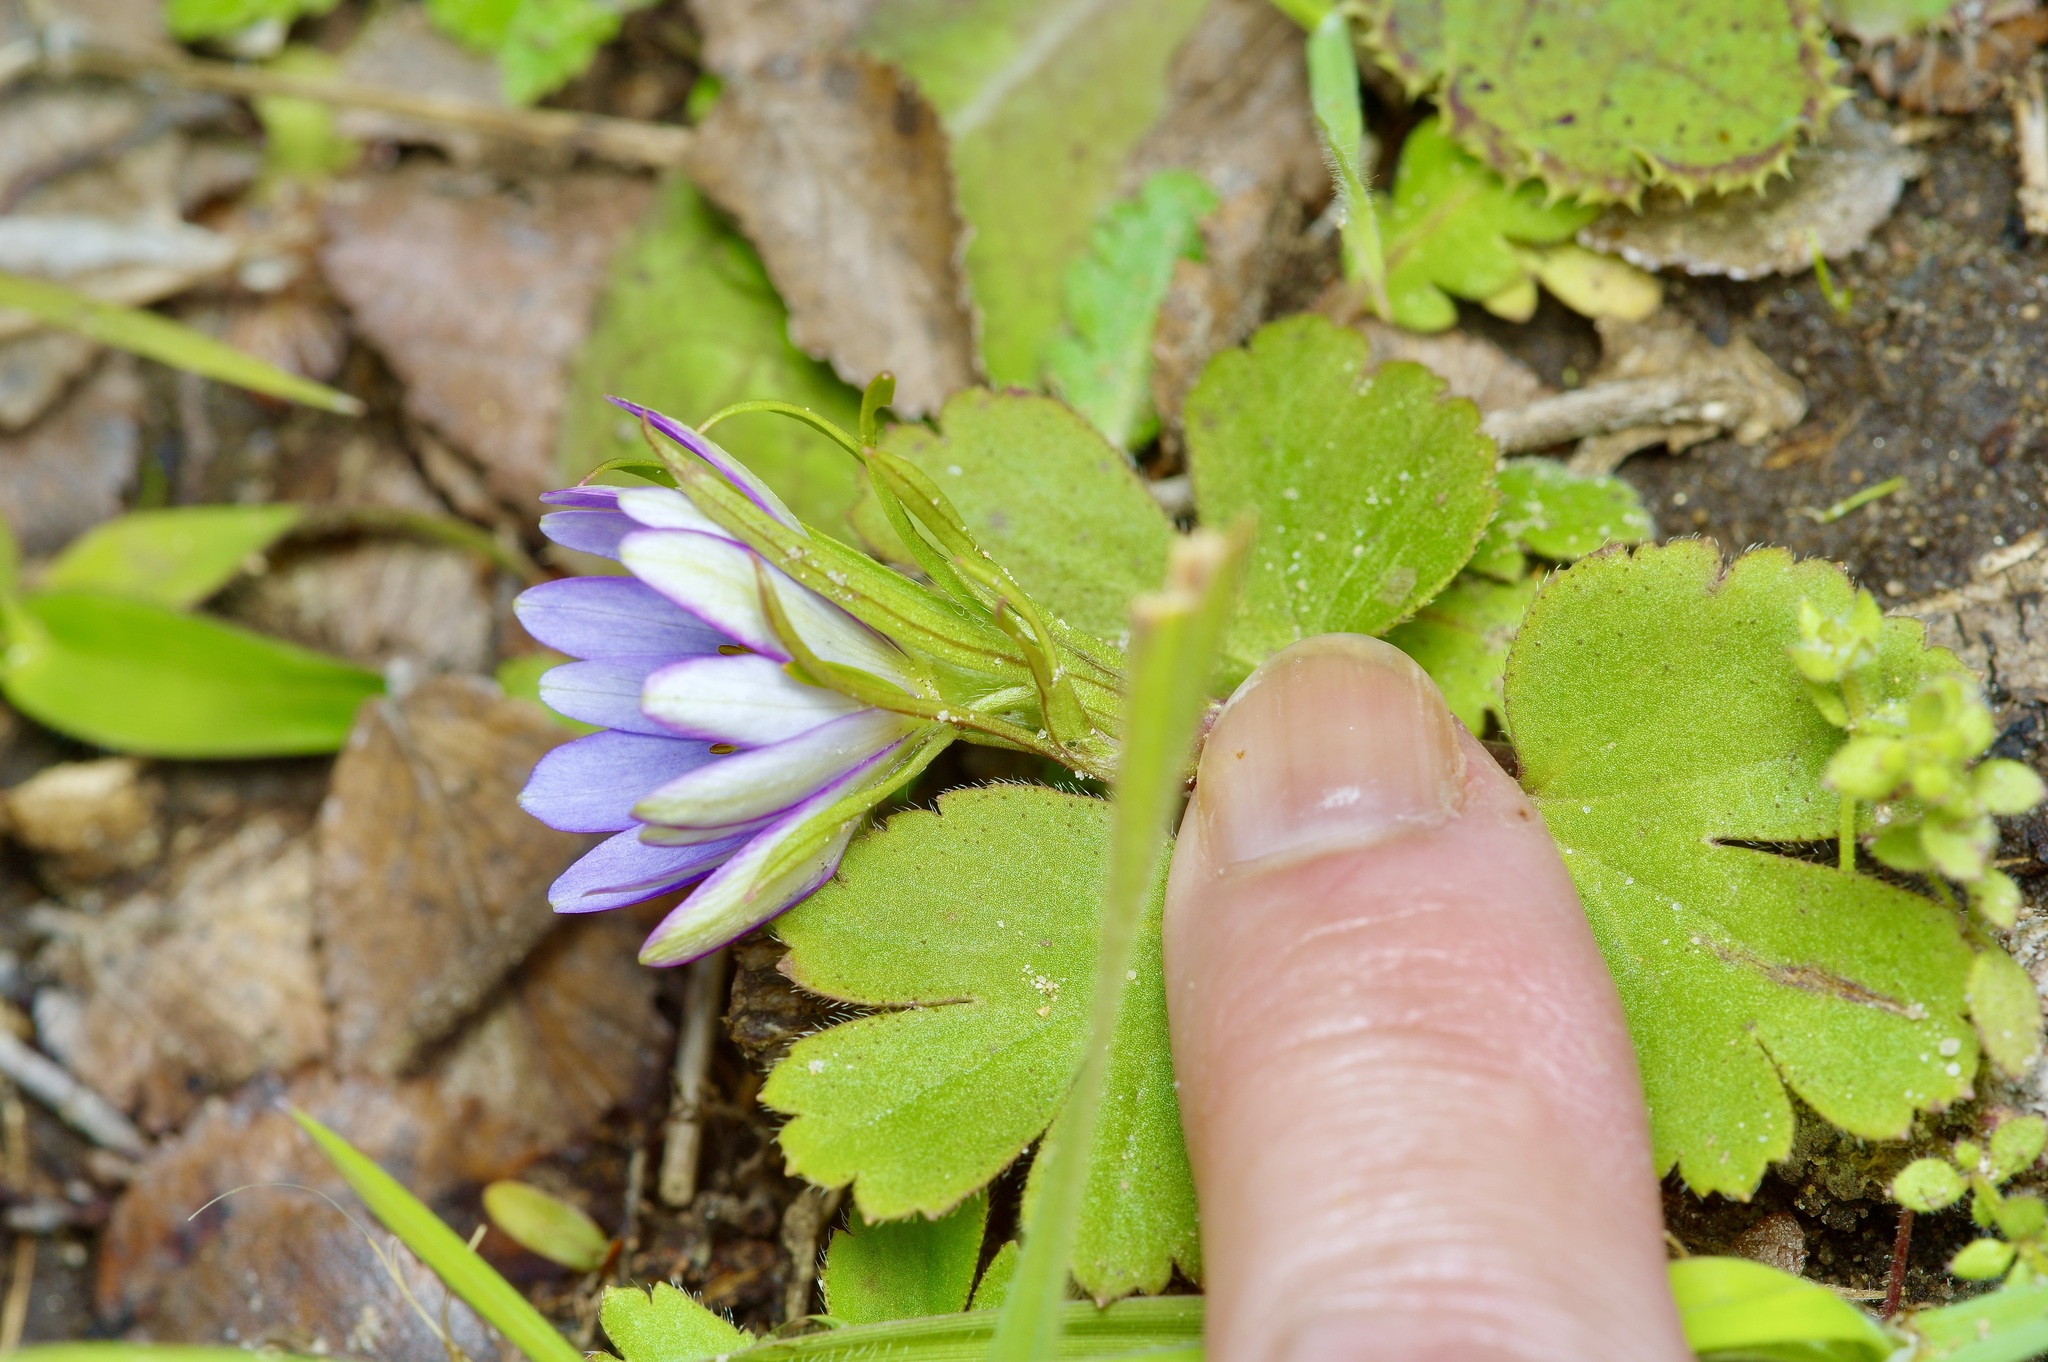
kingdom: Plantae
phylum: Tracheophyta
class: Magnoliopsida
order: Ranunculales
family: Ranunculaceae
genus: Anemone
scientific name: Anemone berlandieri
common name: Ten-petal anemone
